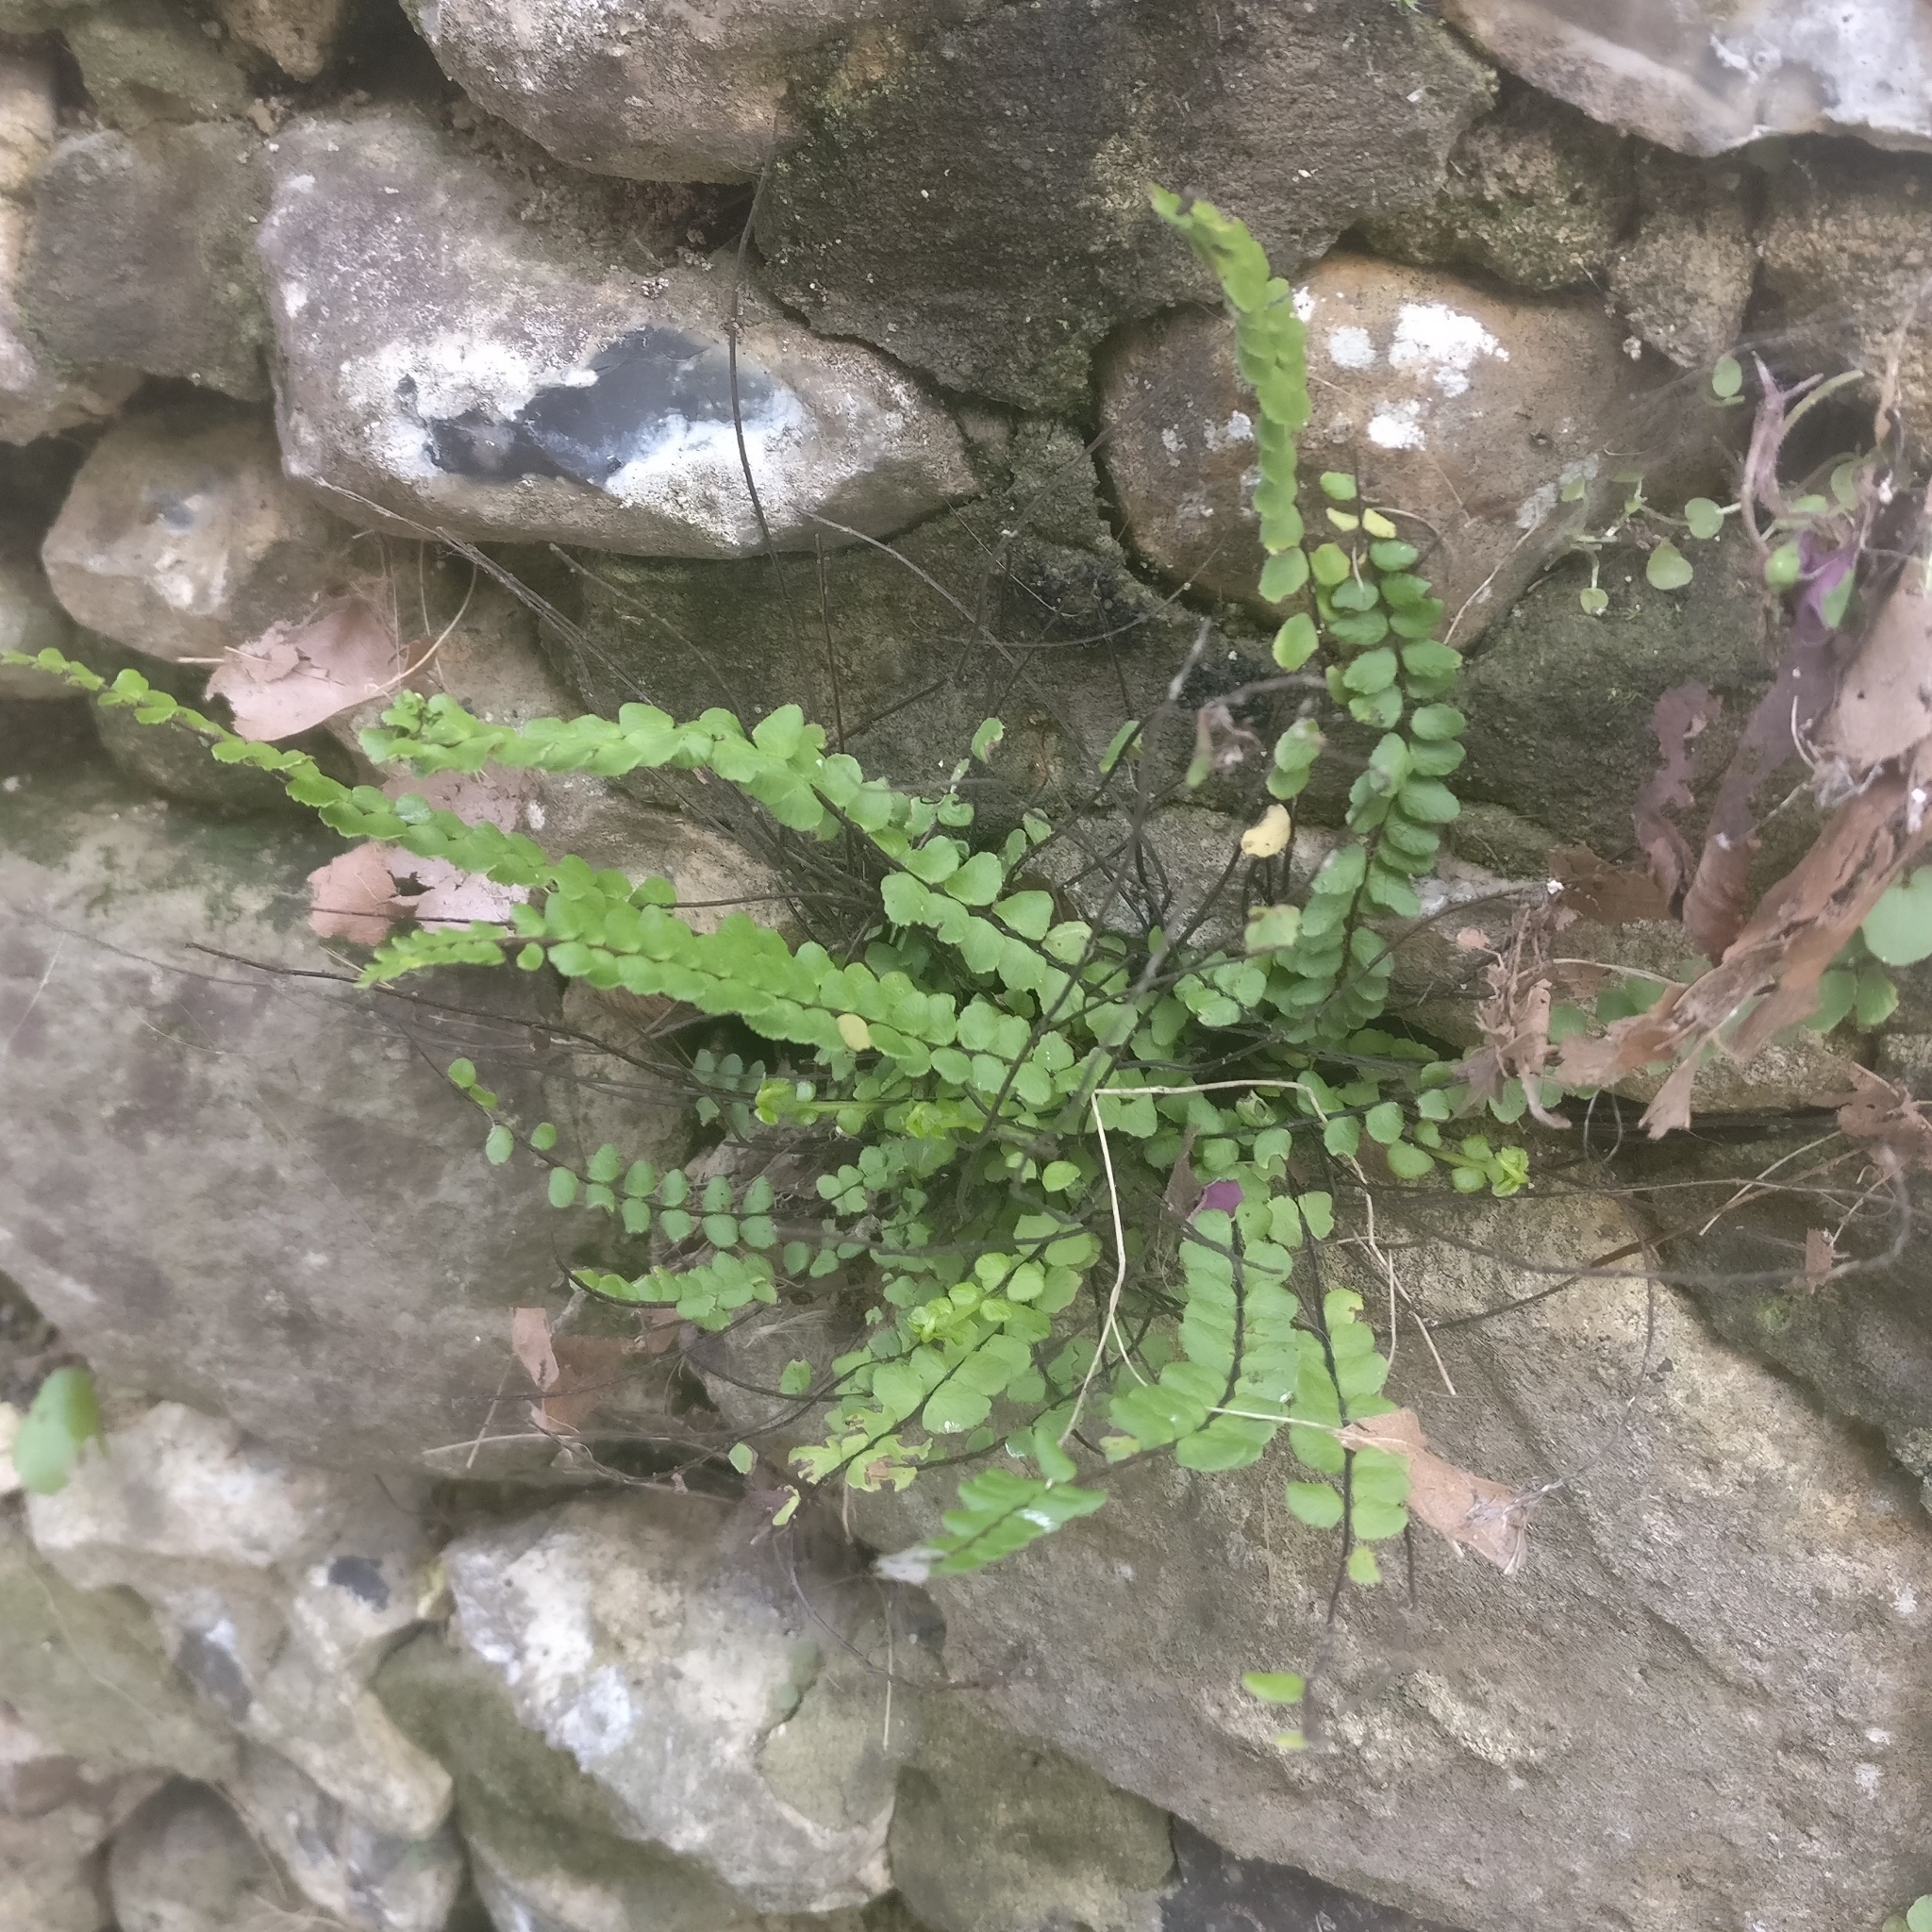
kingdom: Plantae
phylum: Tracheophyta
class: Polypodiopsida
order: Polypodiales
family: Aspleniaceae
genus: Asplenium
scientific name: Asplenium trichomanes
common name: Maidenhair spleenwort
